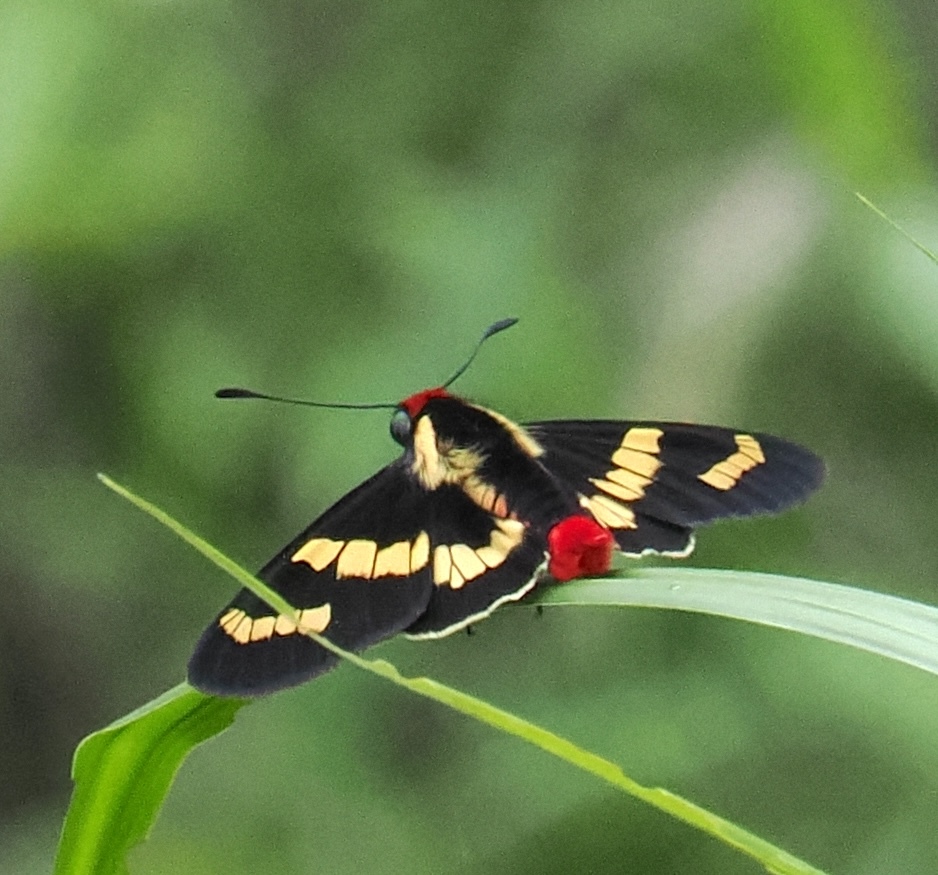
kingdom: Animalia
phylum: Arthropoda
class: Insecta
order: Lepidoptera
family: Hesperiidae
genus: Sarbia
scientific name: Sarbia damippe
